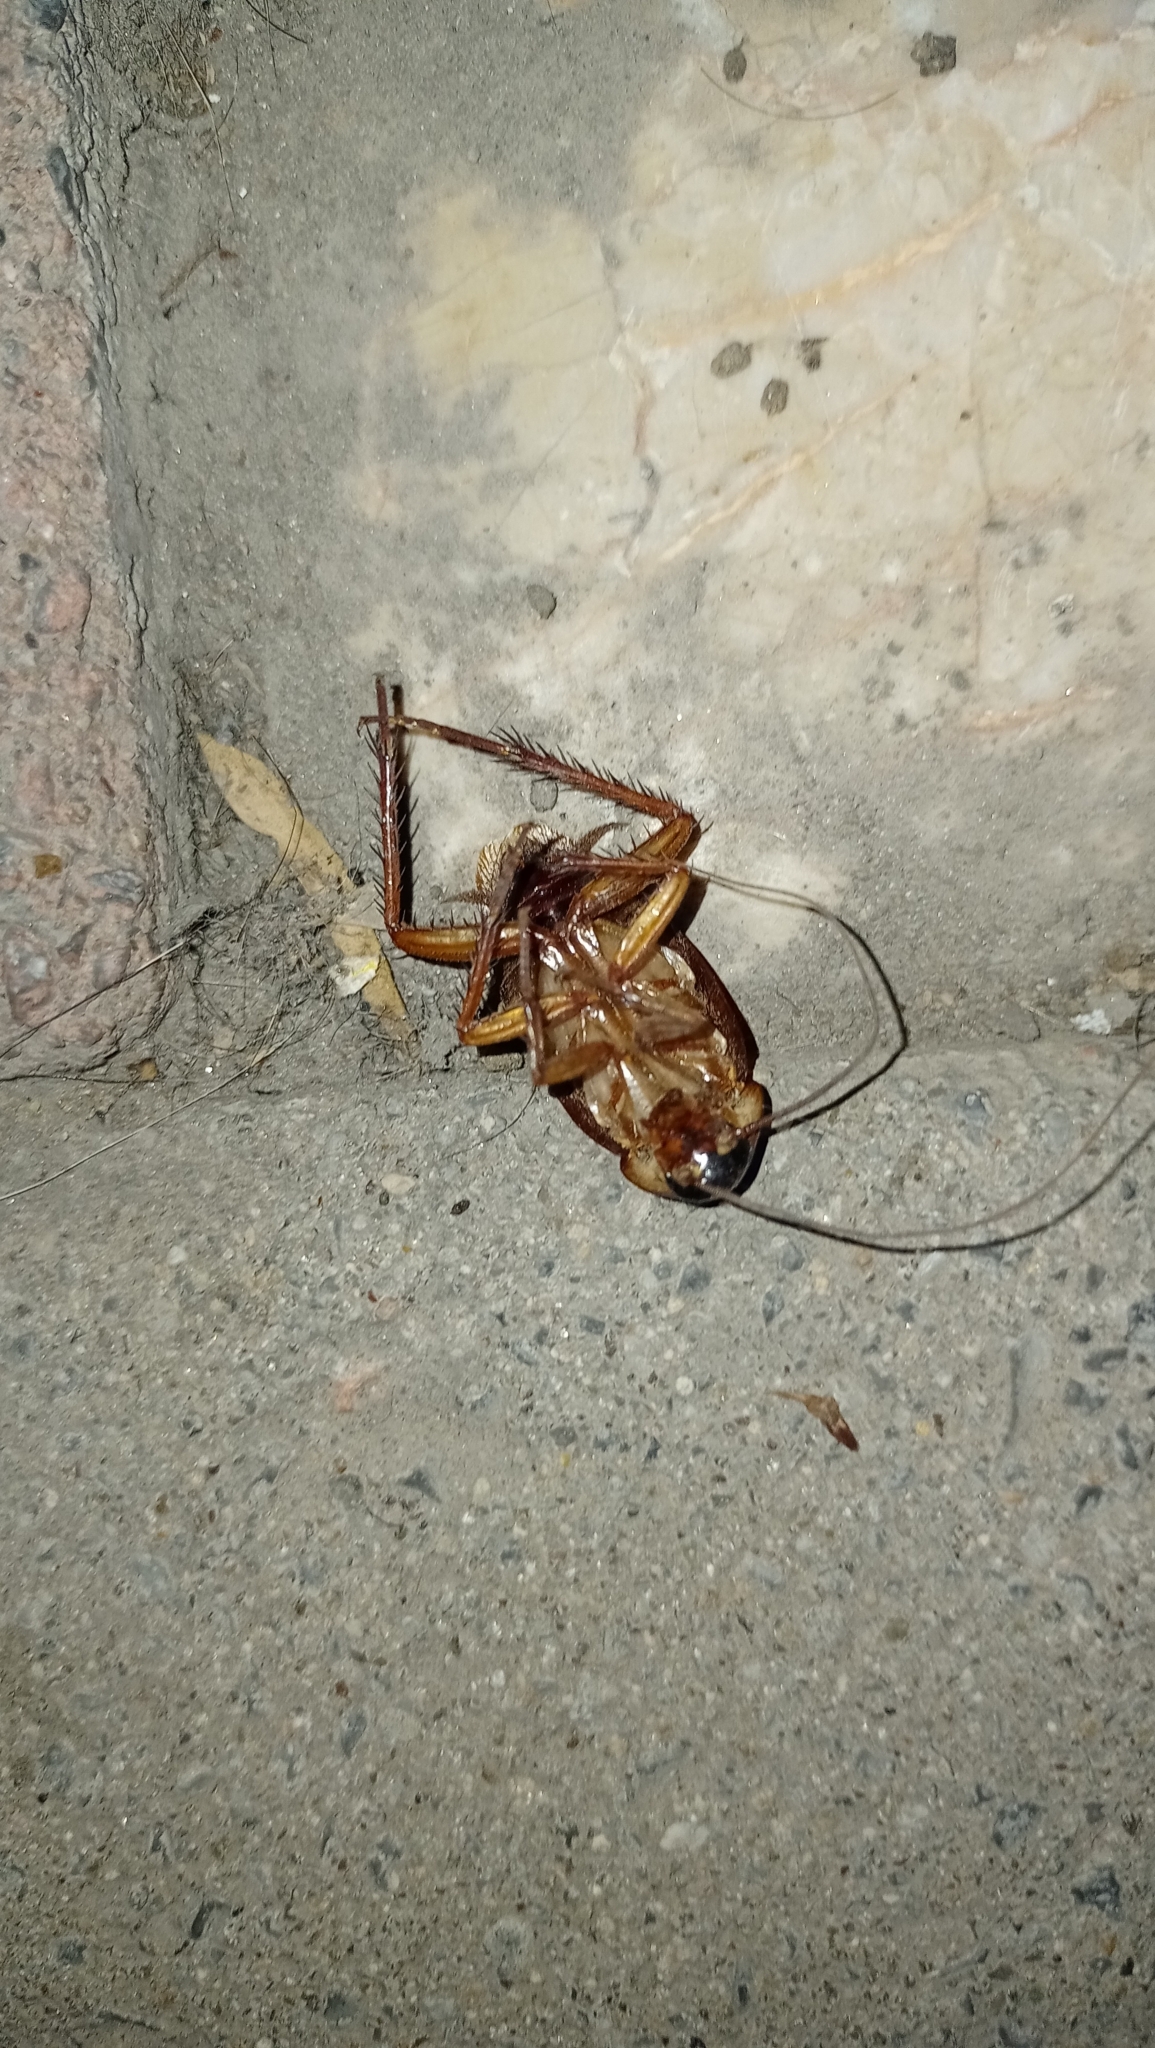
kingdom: Animalia
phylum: Arthropoda
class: Insecta
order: Blattodea
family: Blattidae
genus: Periplaneta
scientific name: Periplaneta americana
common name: American cockroach
